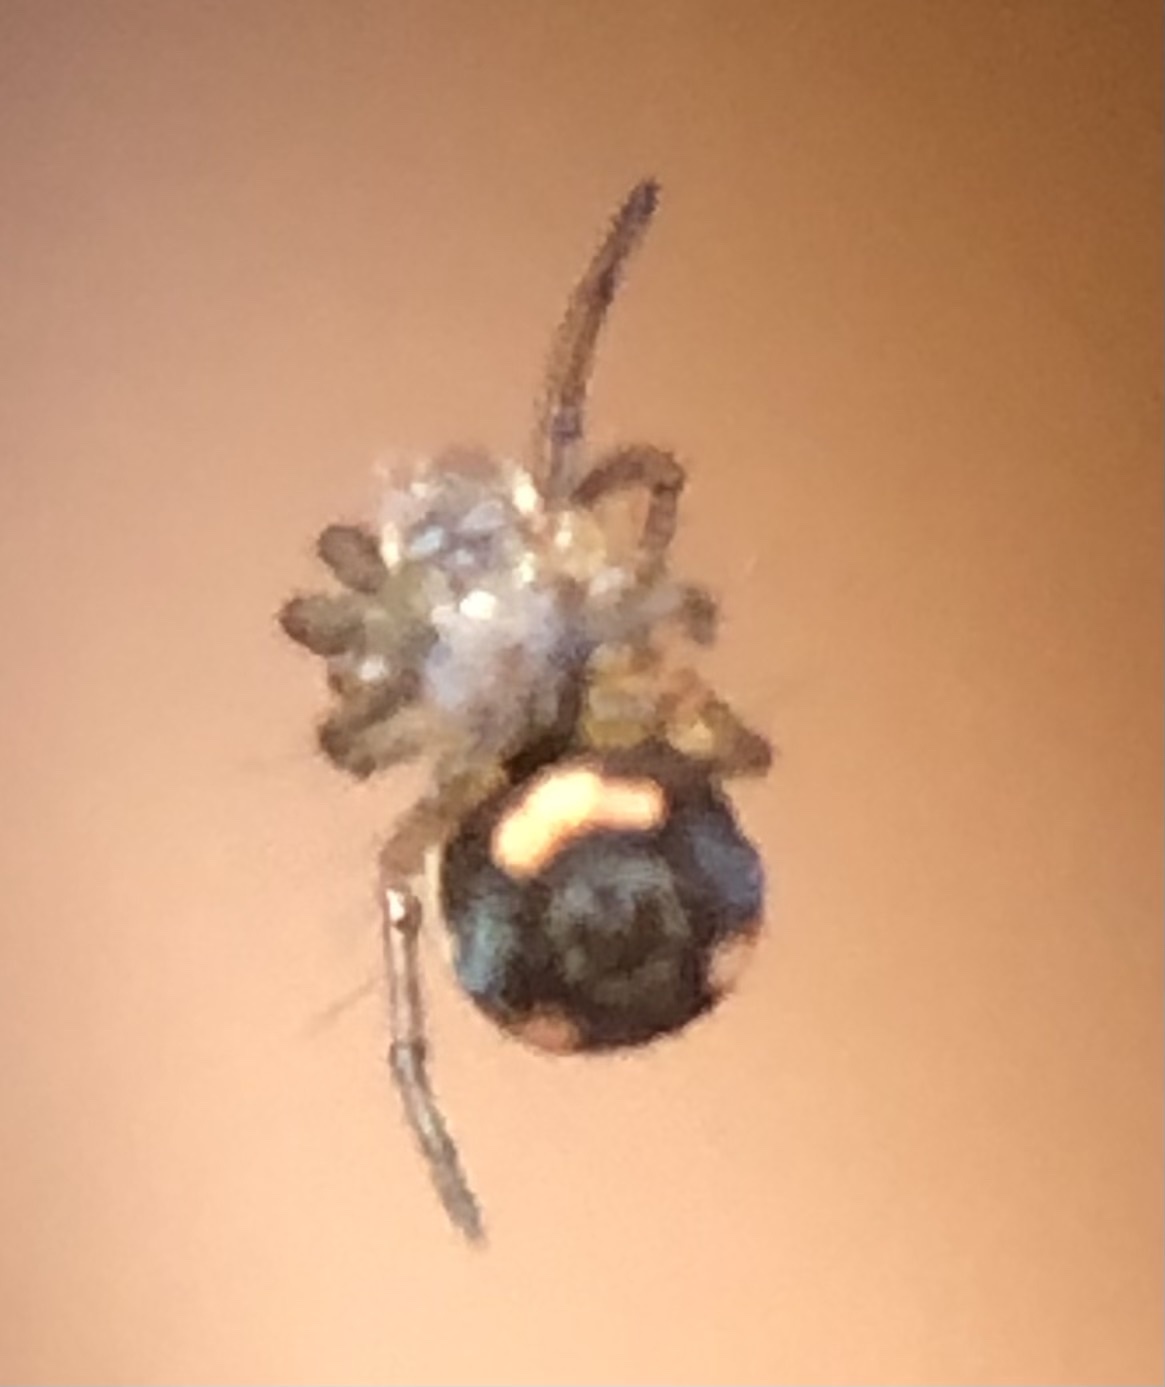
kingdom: Animalia
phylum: Arthropoda
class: Arachnida
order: Araneae
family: Tetragnathidae
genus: Leucauge
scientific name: Leucauge venusta
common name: Longjawed orb weavers
